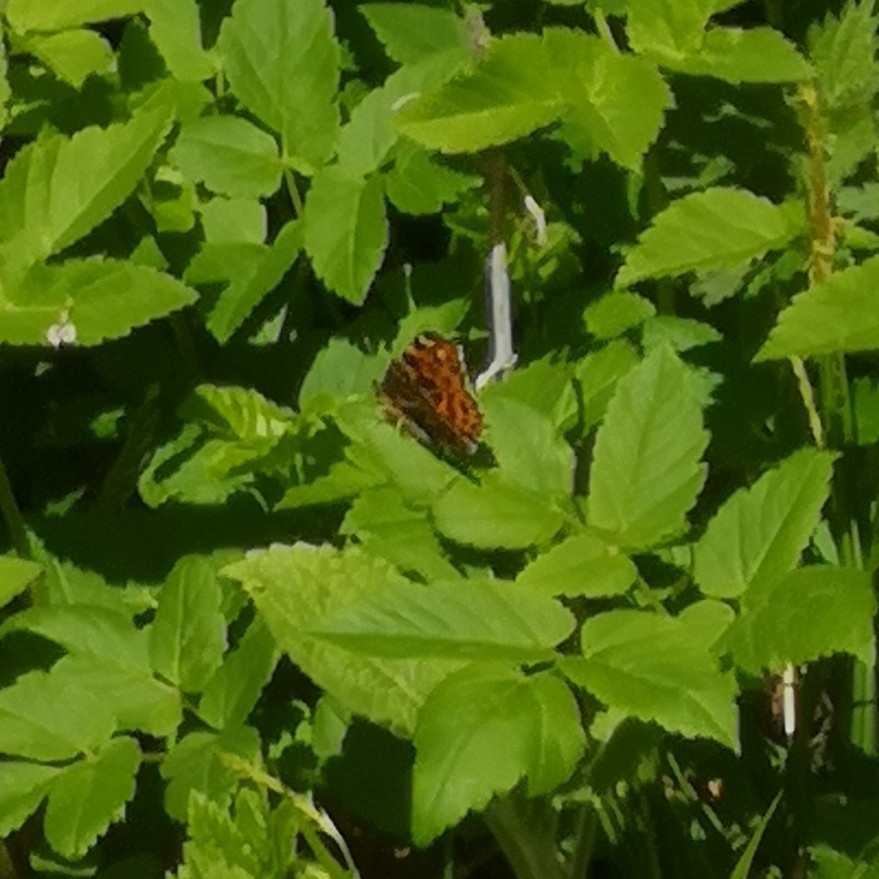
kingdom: Animalia
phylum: Arthropoda
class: Insecta
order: Lepidoptera
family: Nymphalidae
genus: Araschnia
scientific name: Araschnia levana
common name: Map butterfly
